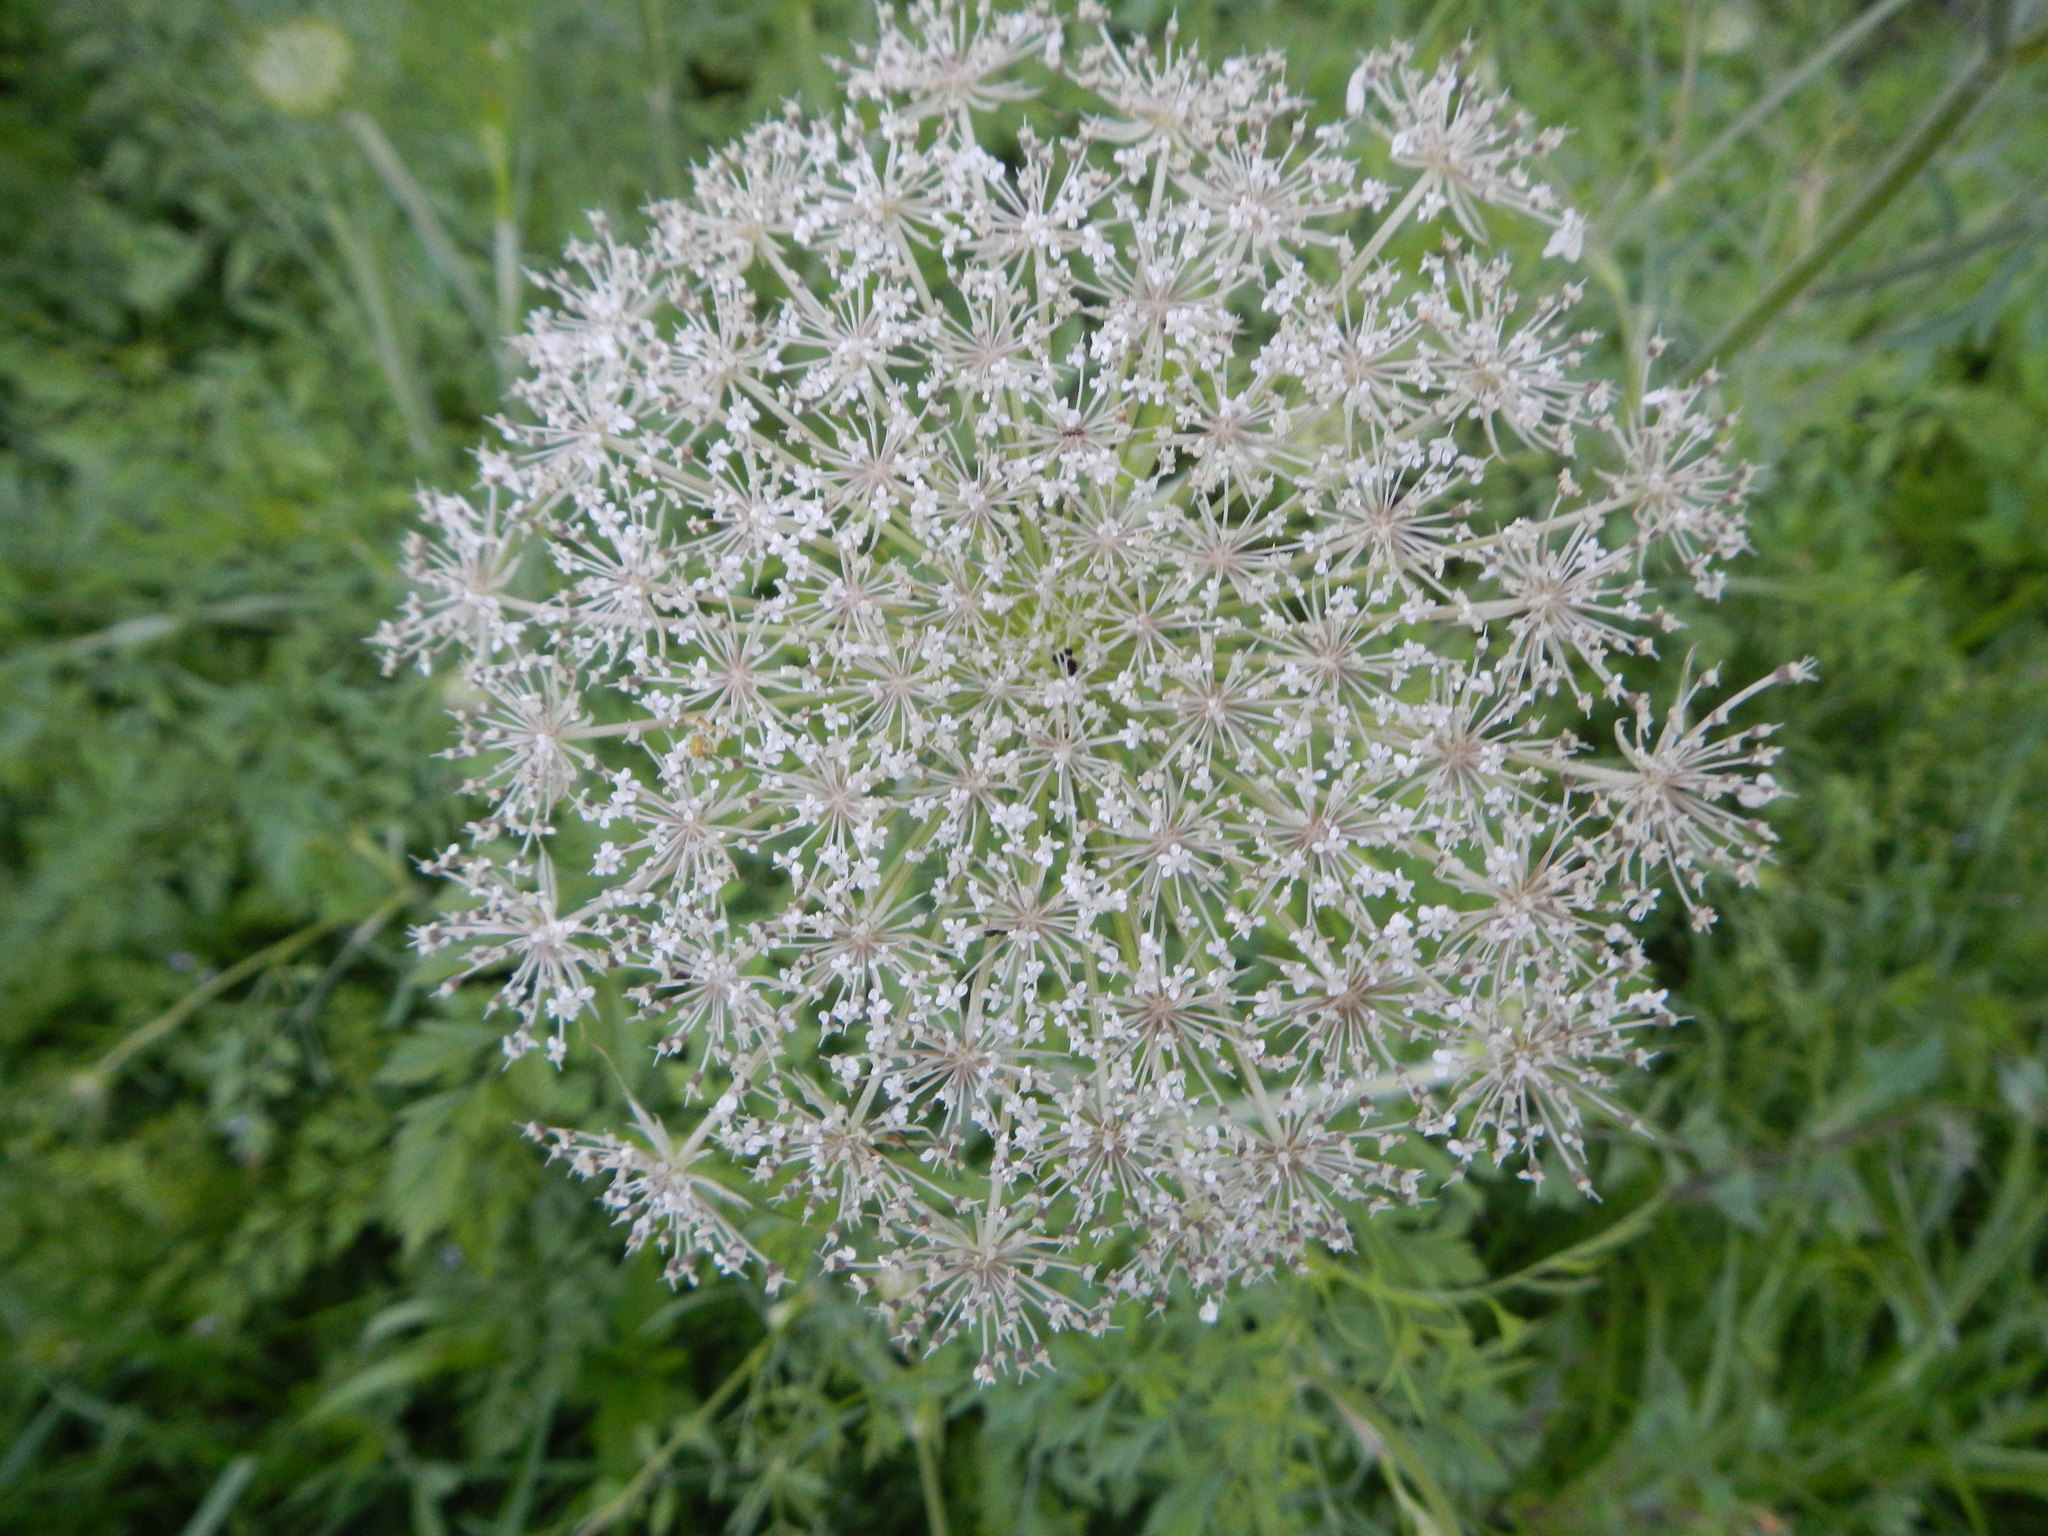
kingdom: Plantae
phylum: Tracheophyta
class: Magnoliopsida
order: Apiales
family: Apiaceae
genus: Daucus
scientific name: Daucus carota
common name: Wild carrot
